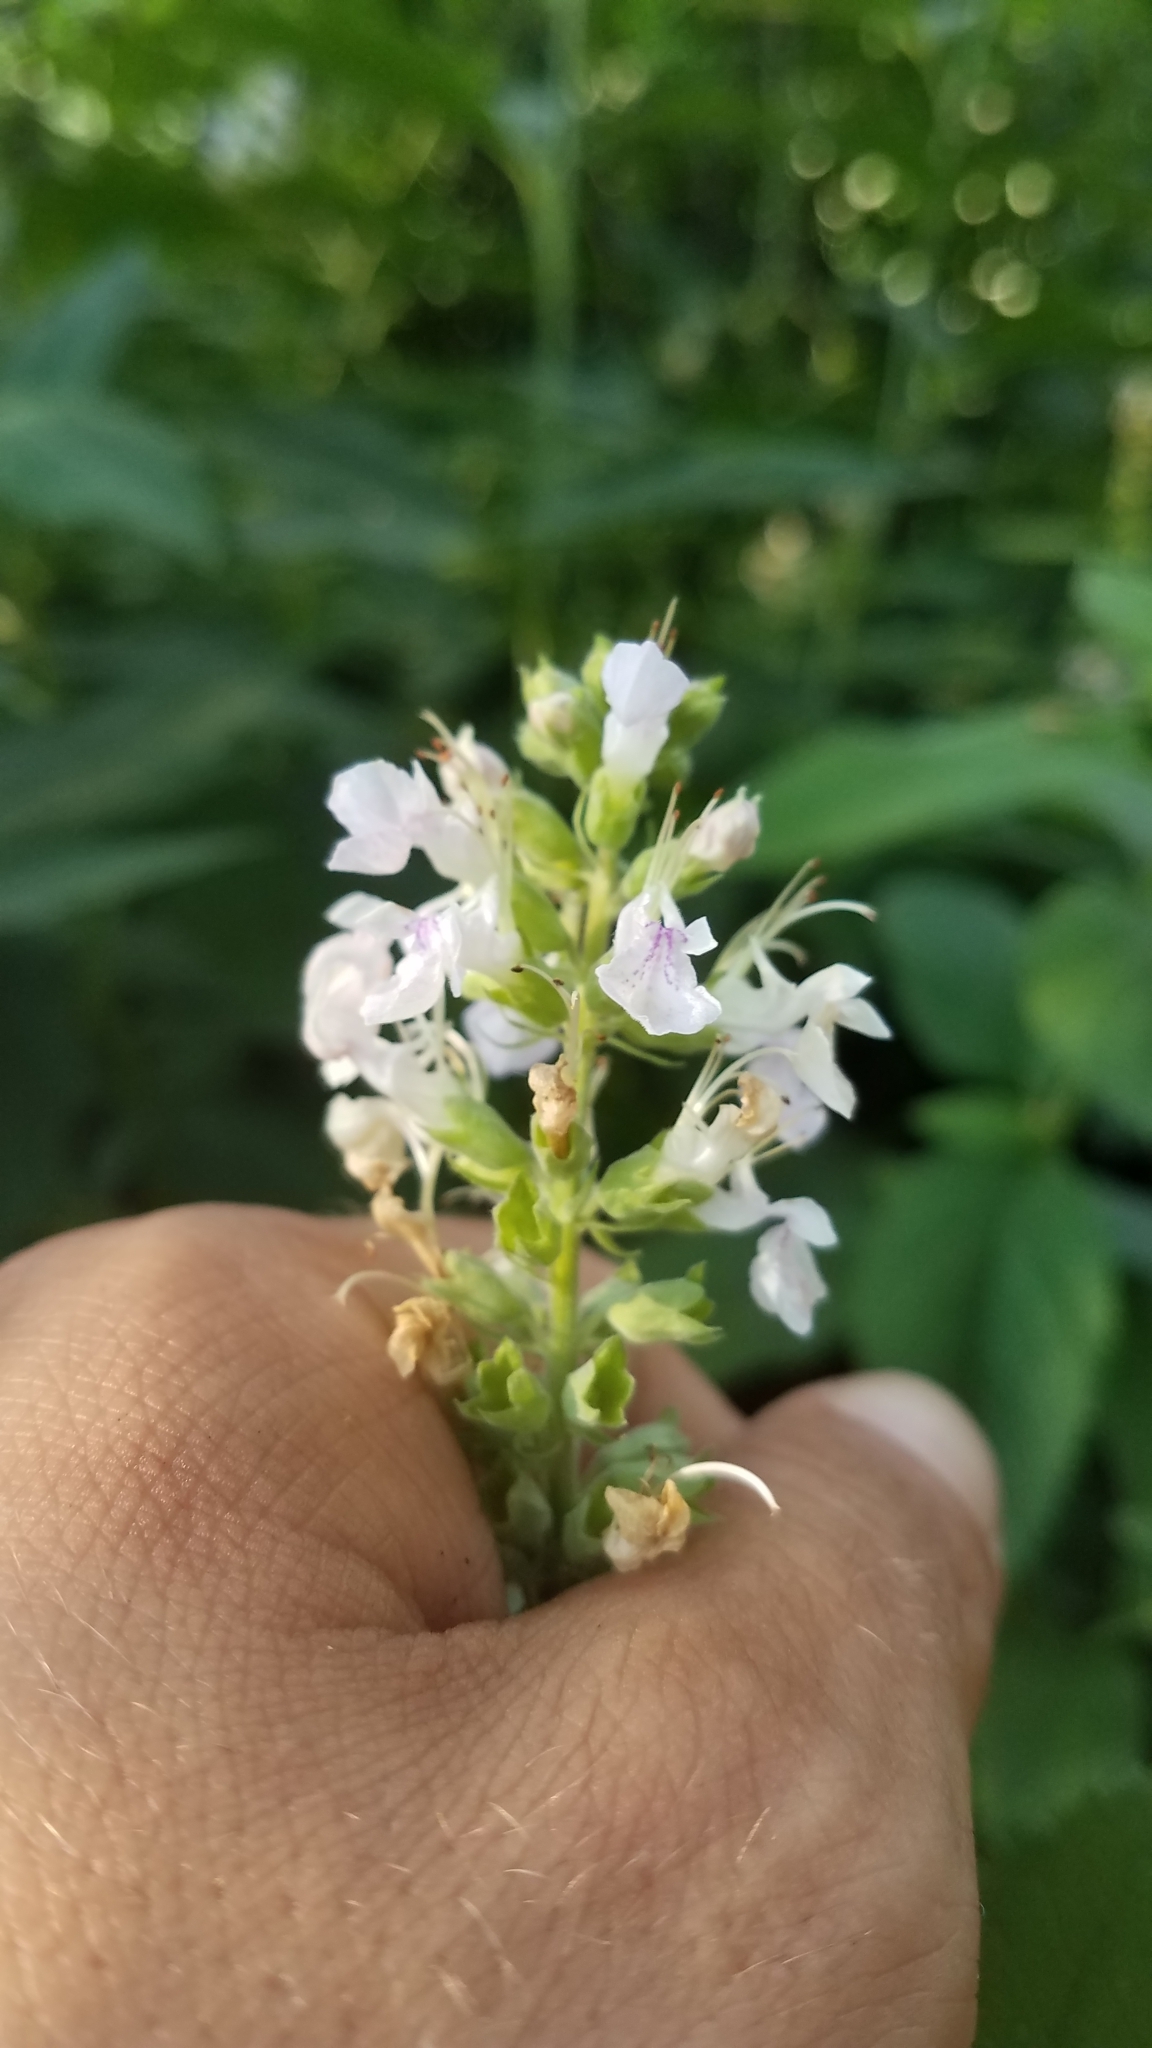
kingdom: Plantae
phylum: Tracheophyta
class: Magnoliopsida
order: Lamiales
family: Lamiaceae
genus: Teucrium
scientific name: Teucrium canadense
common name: American germander
